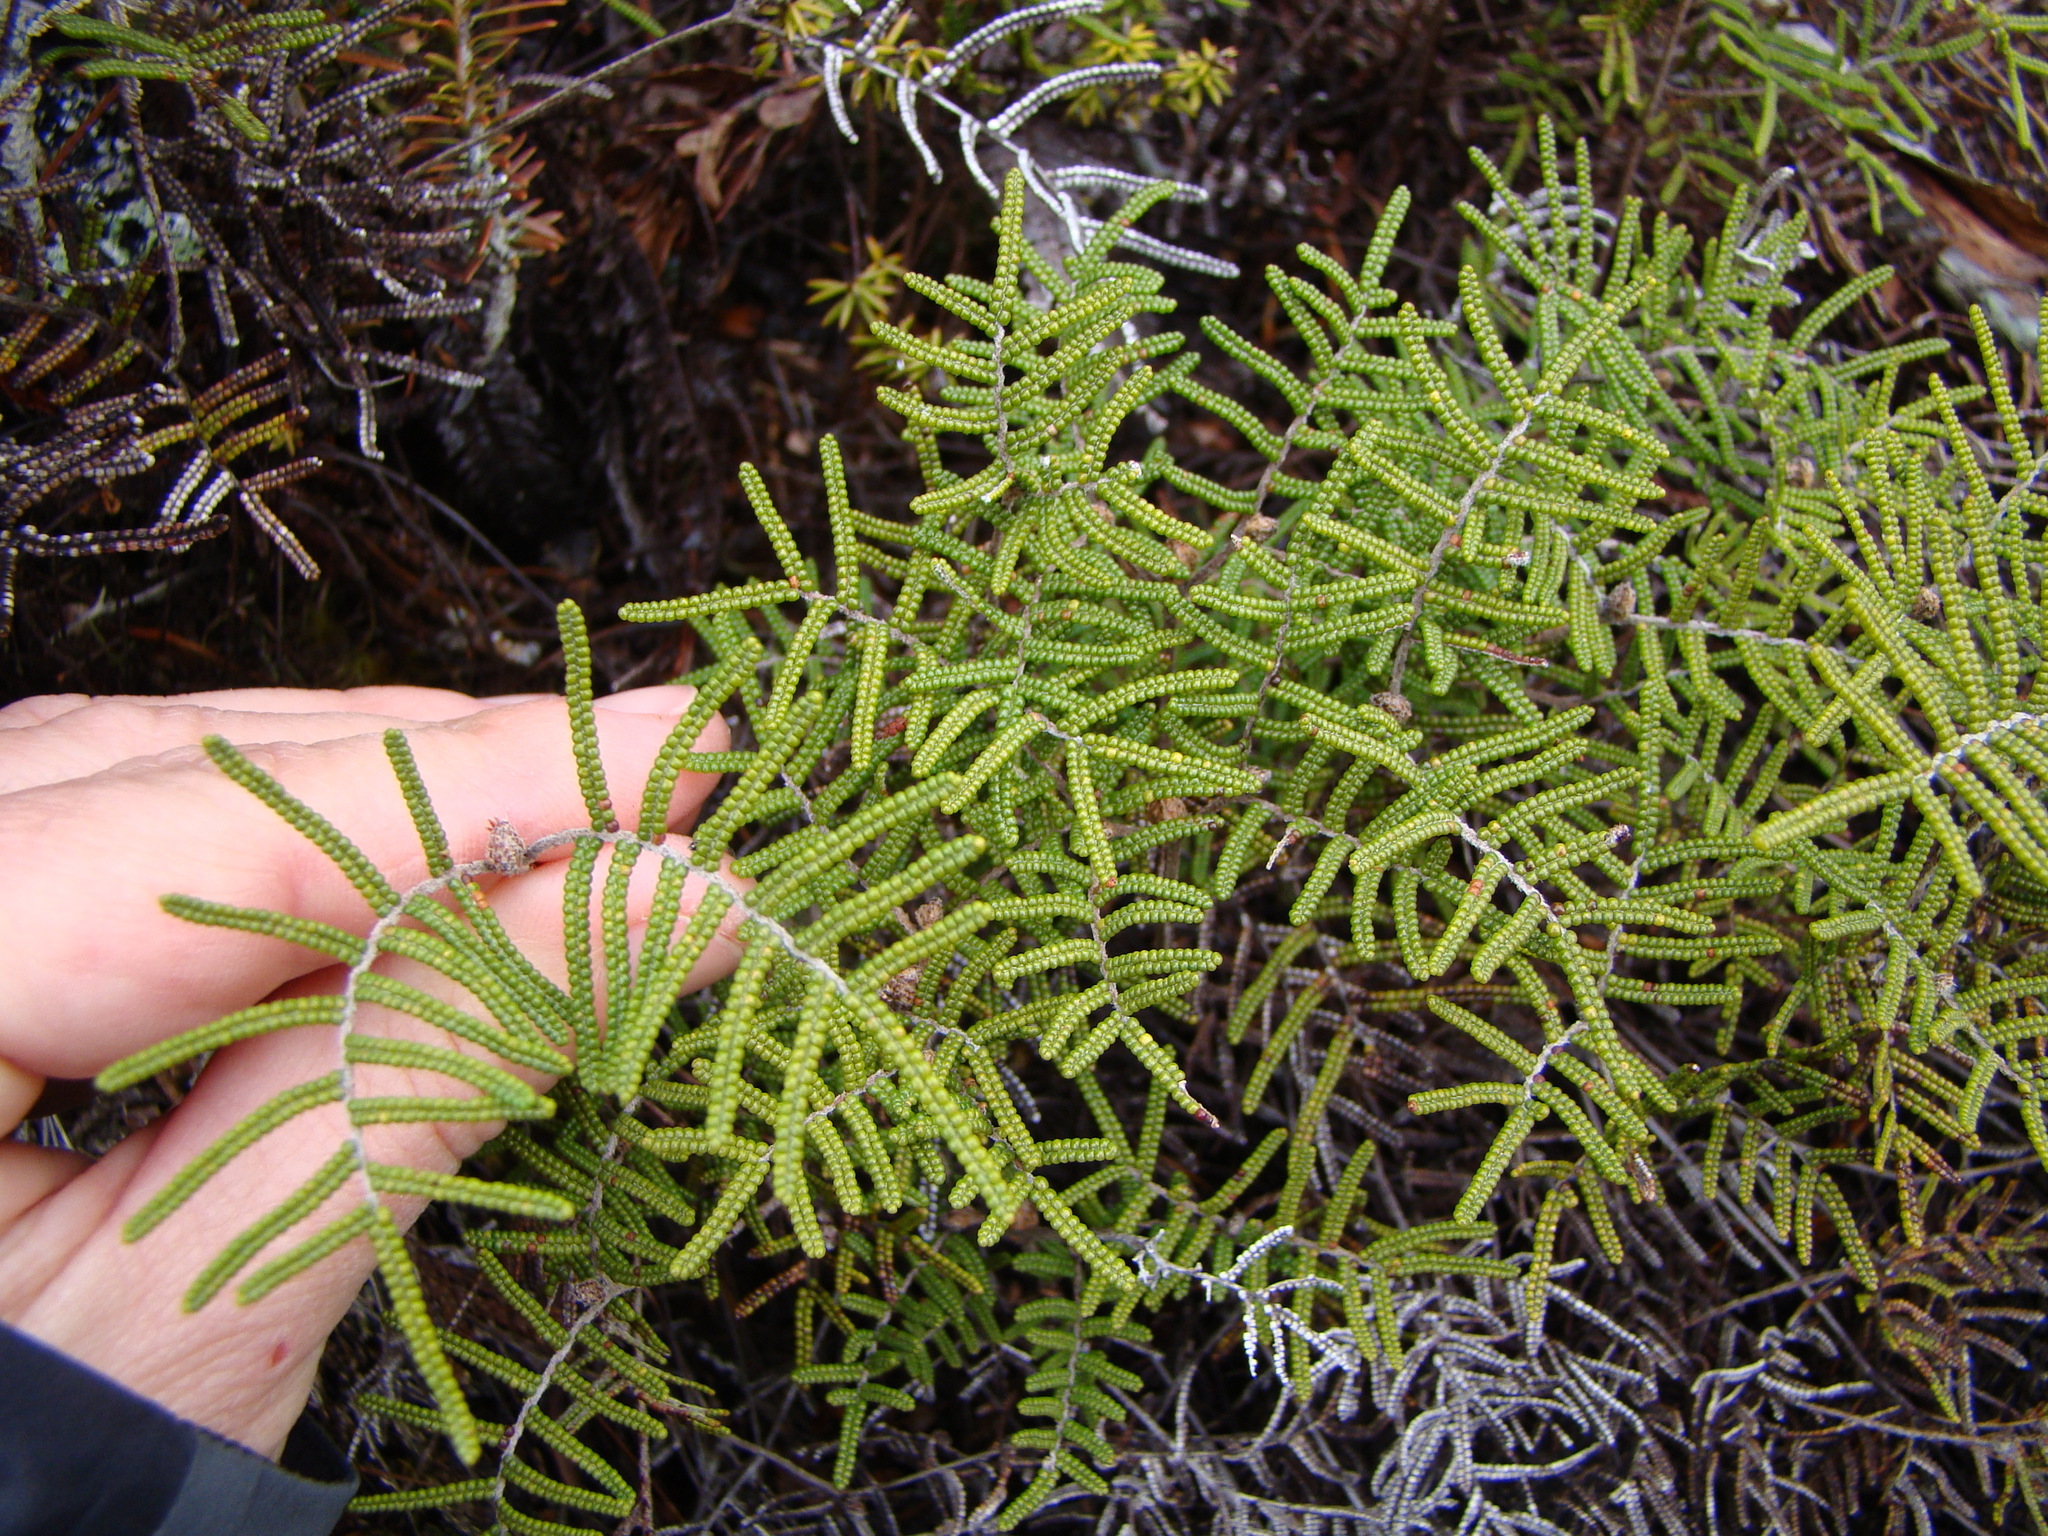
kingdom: Plantae
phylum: Tracheophyta
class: Polypodiopsida
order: Gleicheniales
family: Gleicheniaceae
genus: Gleichenia
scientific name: Gleichenia alpina
